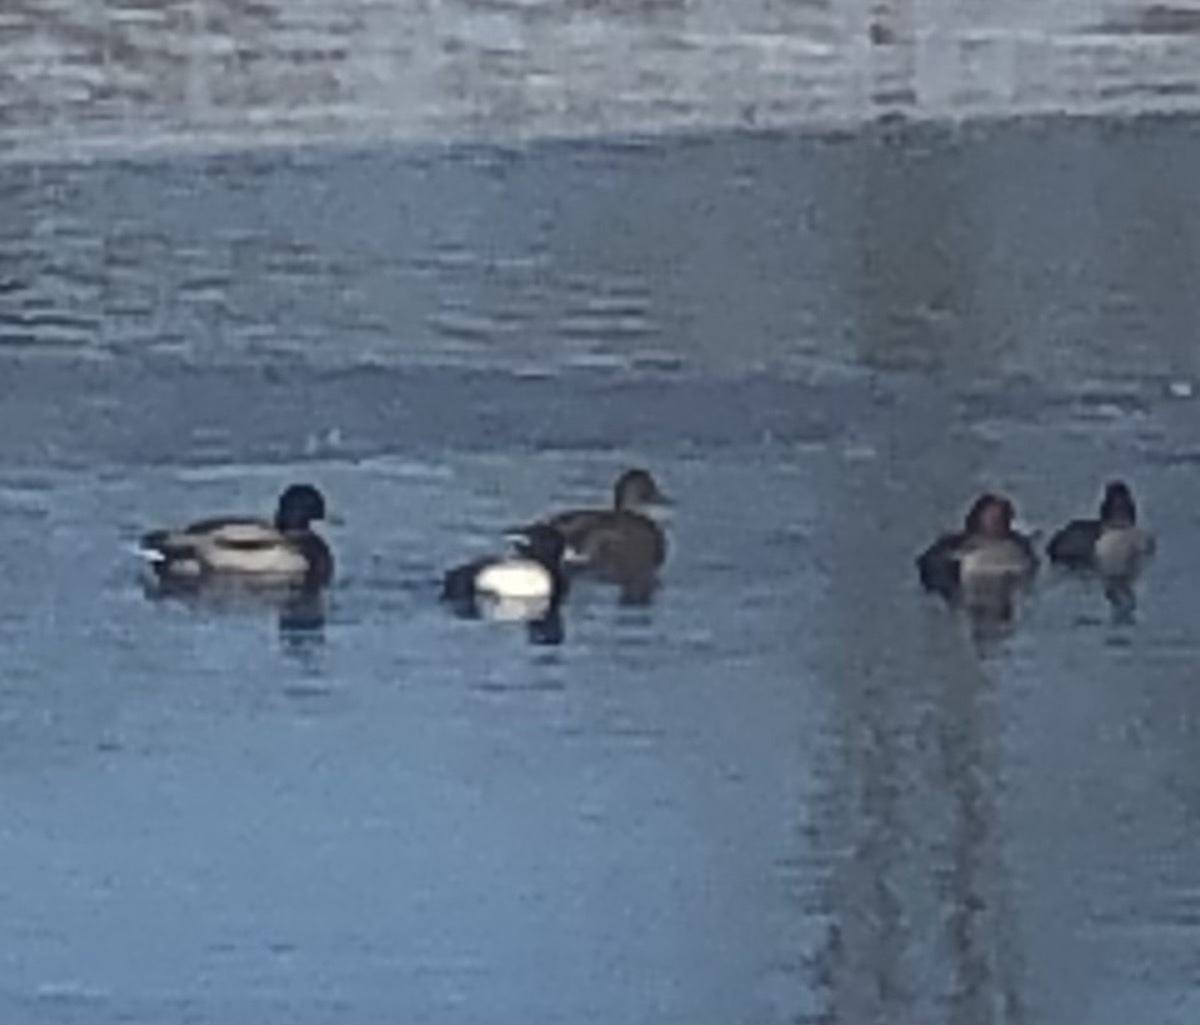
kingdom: Animalia
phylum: Chordata
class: Aves
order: Anseriformes
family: Anatidae
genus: Aythya
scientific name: Aythya affinis
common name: Lesser scaup
